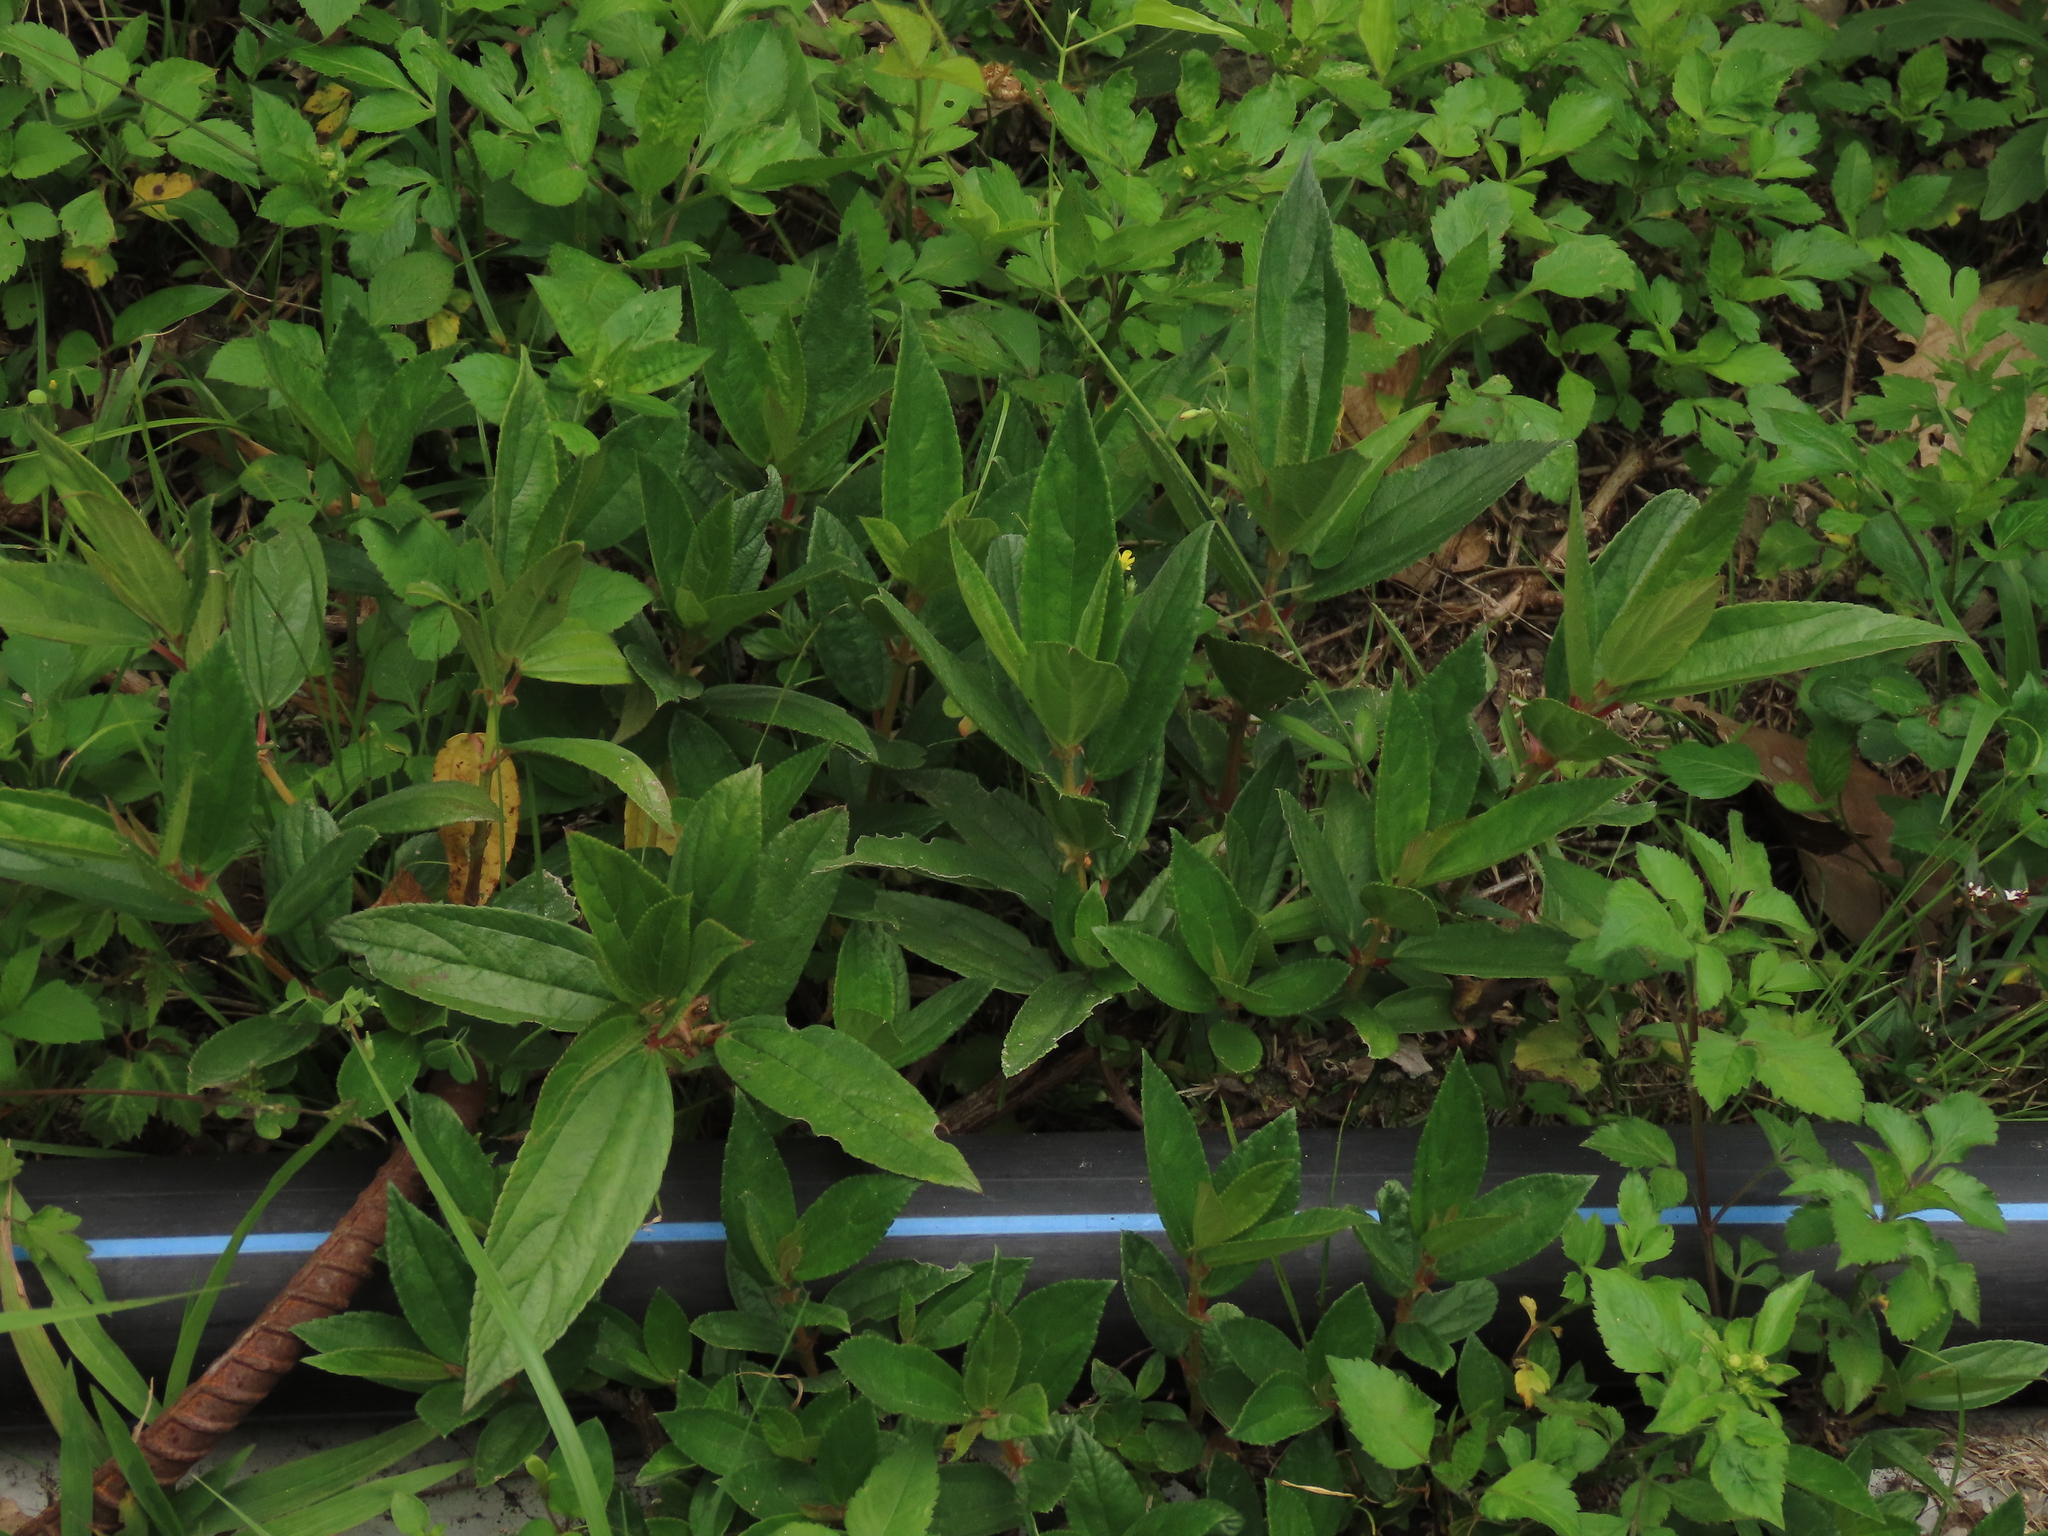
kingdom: Plantae
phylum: Tracheophyta
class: Magnoliopsida
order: Rosales
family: Urticaceae
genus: Boehmeria
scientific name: Boehmeria densiflora
